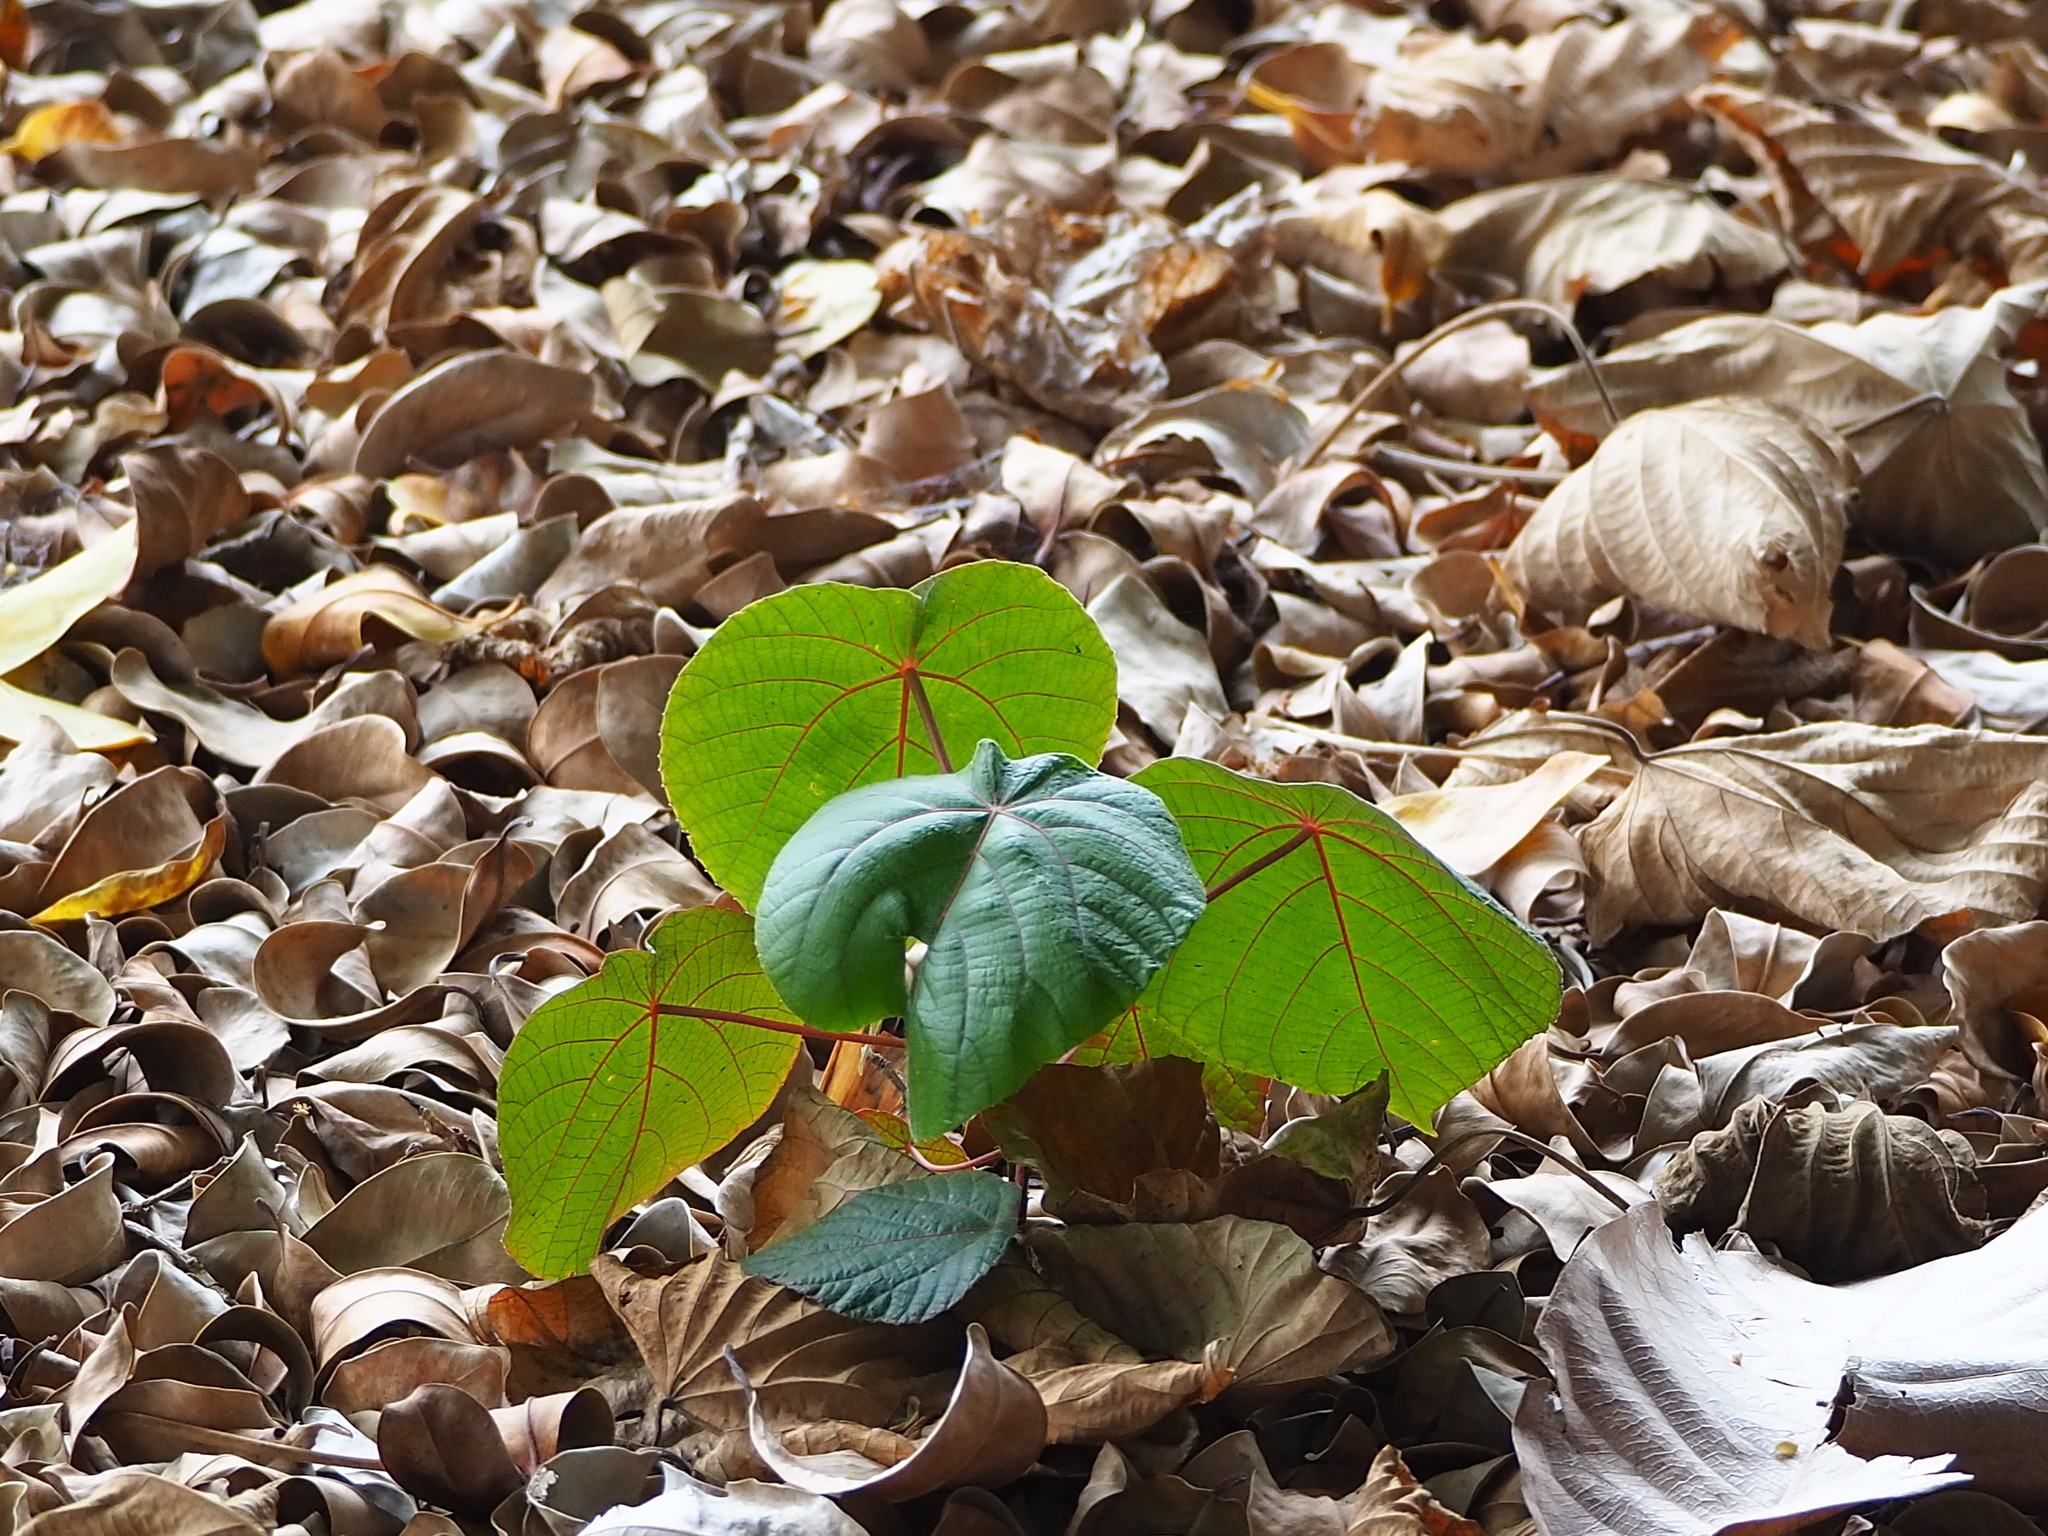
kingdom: Plantae
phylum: Tracheophyta
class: Magnoliopsida
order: Malpighiales
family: Euphorbiaceae
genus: Macaranga
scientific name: Macaranga tanarius
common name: Parasol leaf tree
